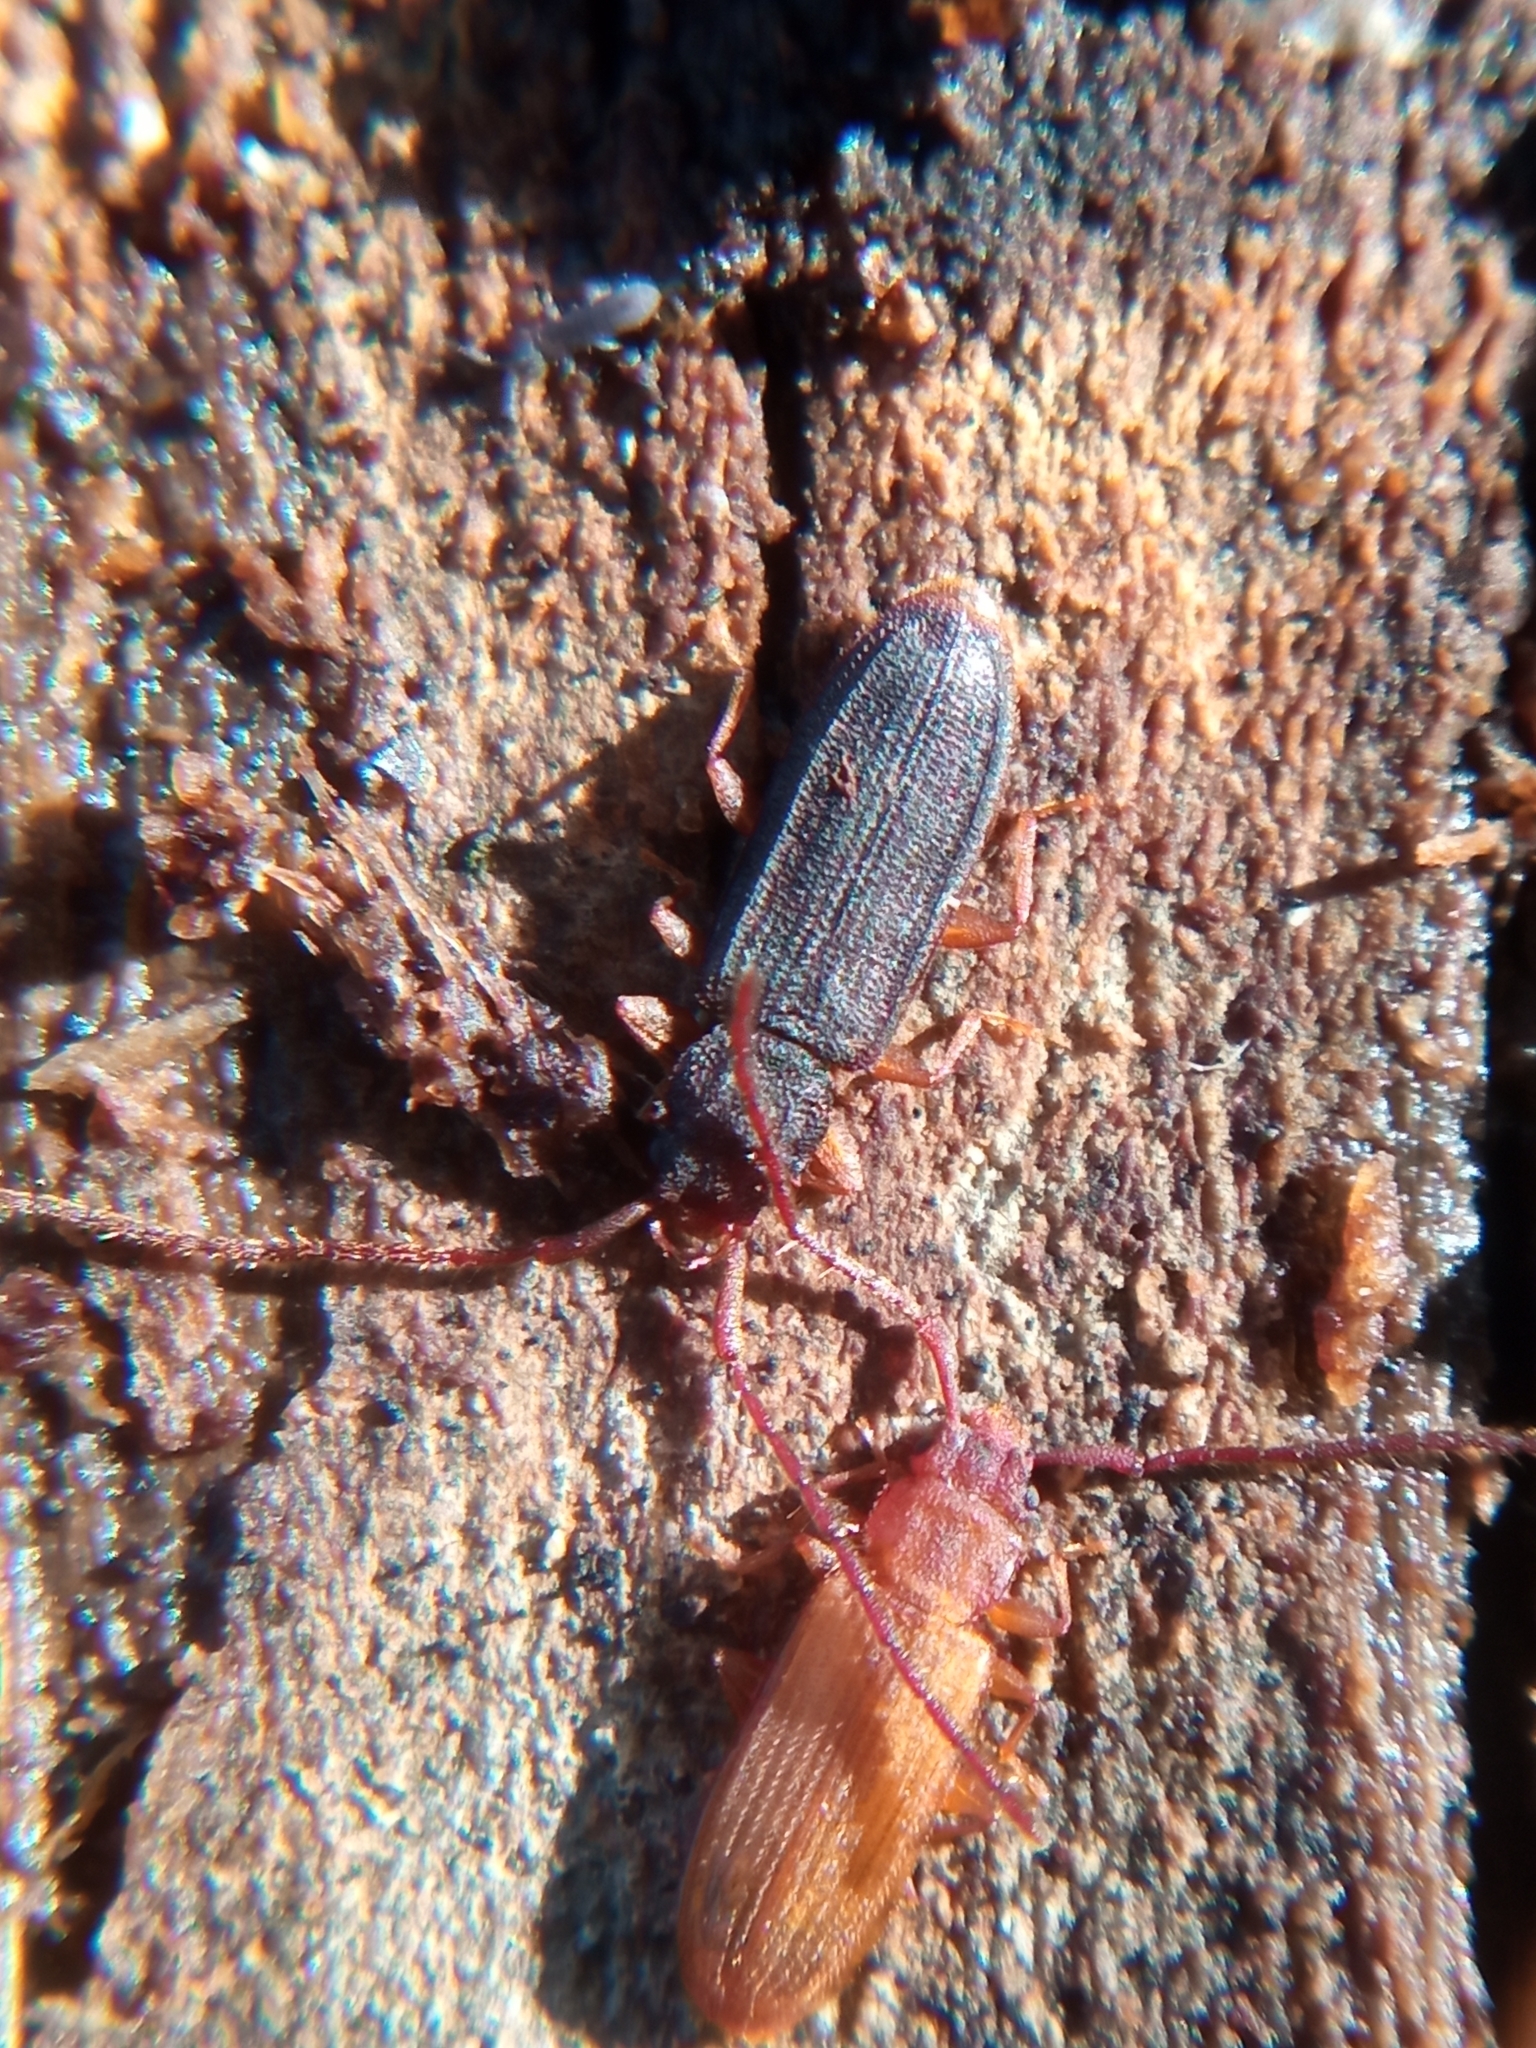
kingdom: Animalia
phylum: Arthropoda
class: Insecta
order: Coleoptera
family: Silvanidae
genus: Uleiota
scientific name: Uleiota planatus
